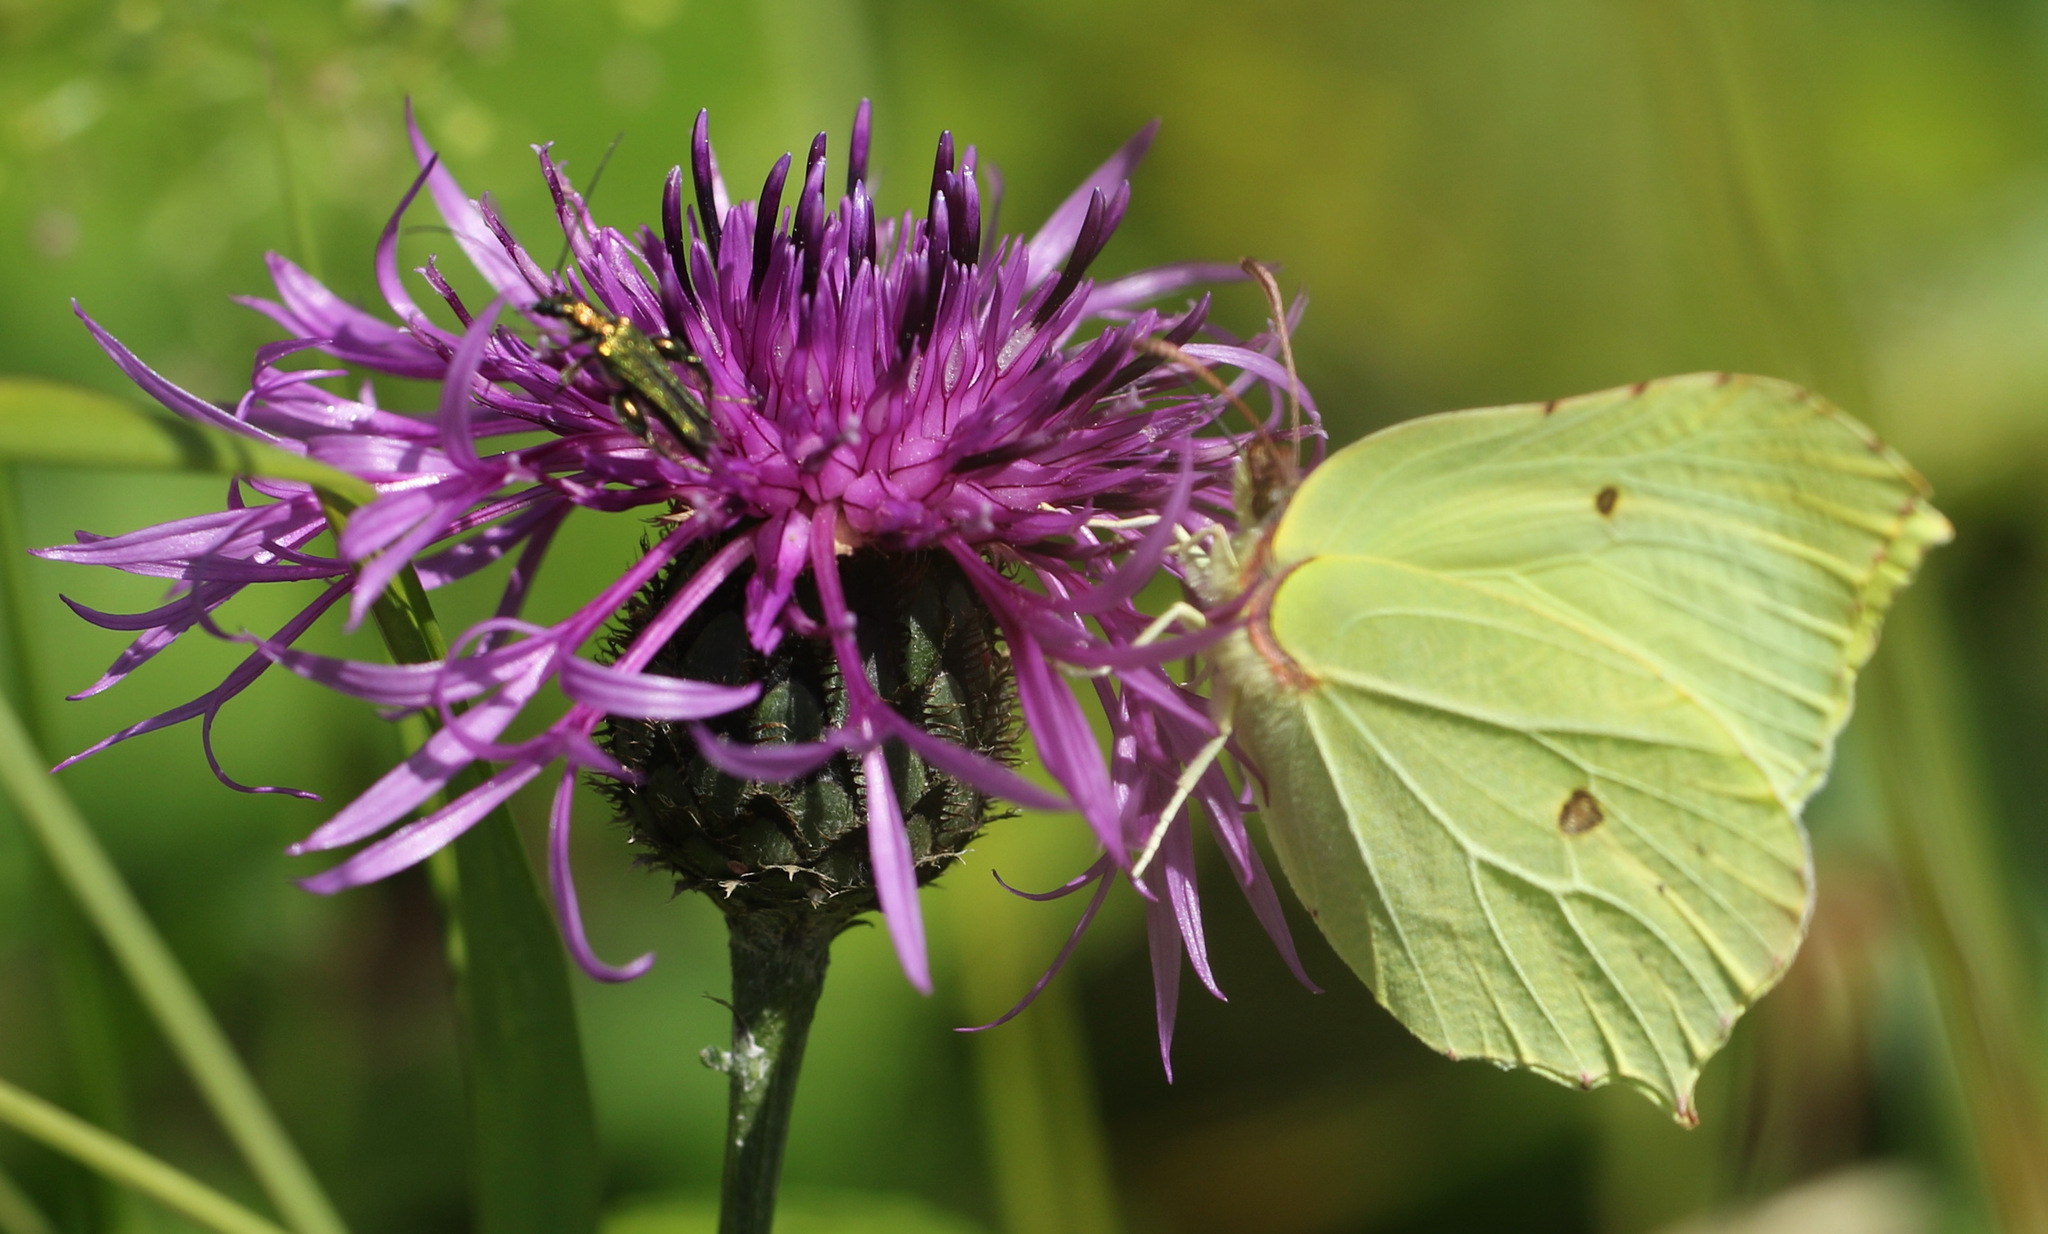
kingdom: Animalia
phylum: Arthropoda
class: Insecta
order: Lepidoptera
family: Pieridae
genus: Gonepteryx
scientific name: Gonepteryx rhamni
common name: Brimstone
